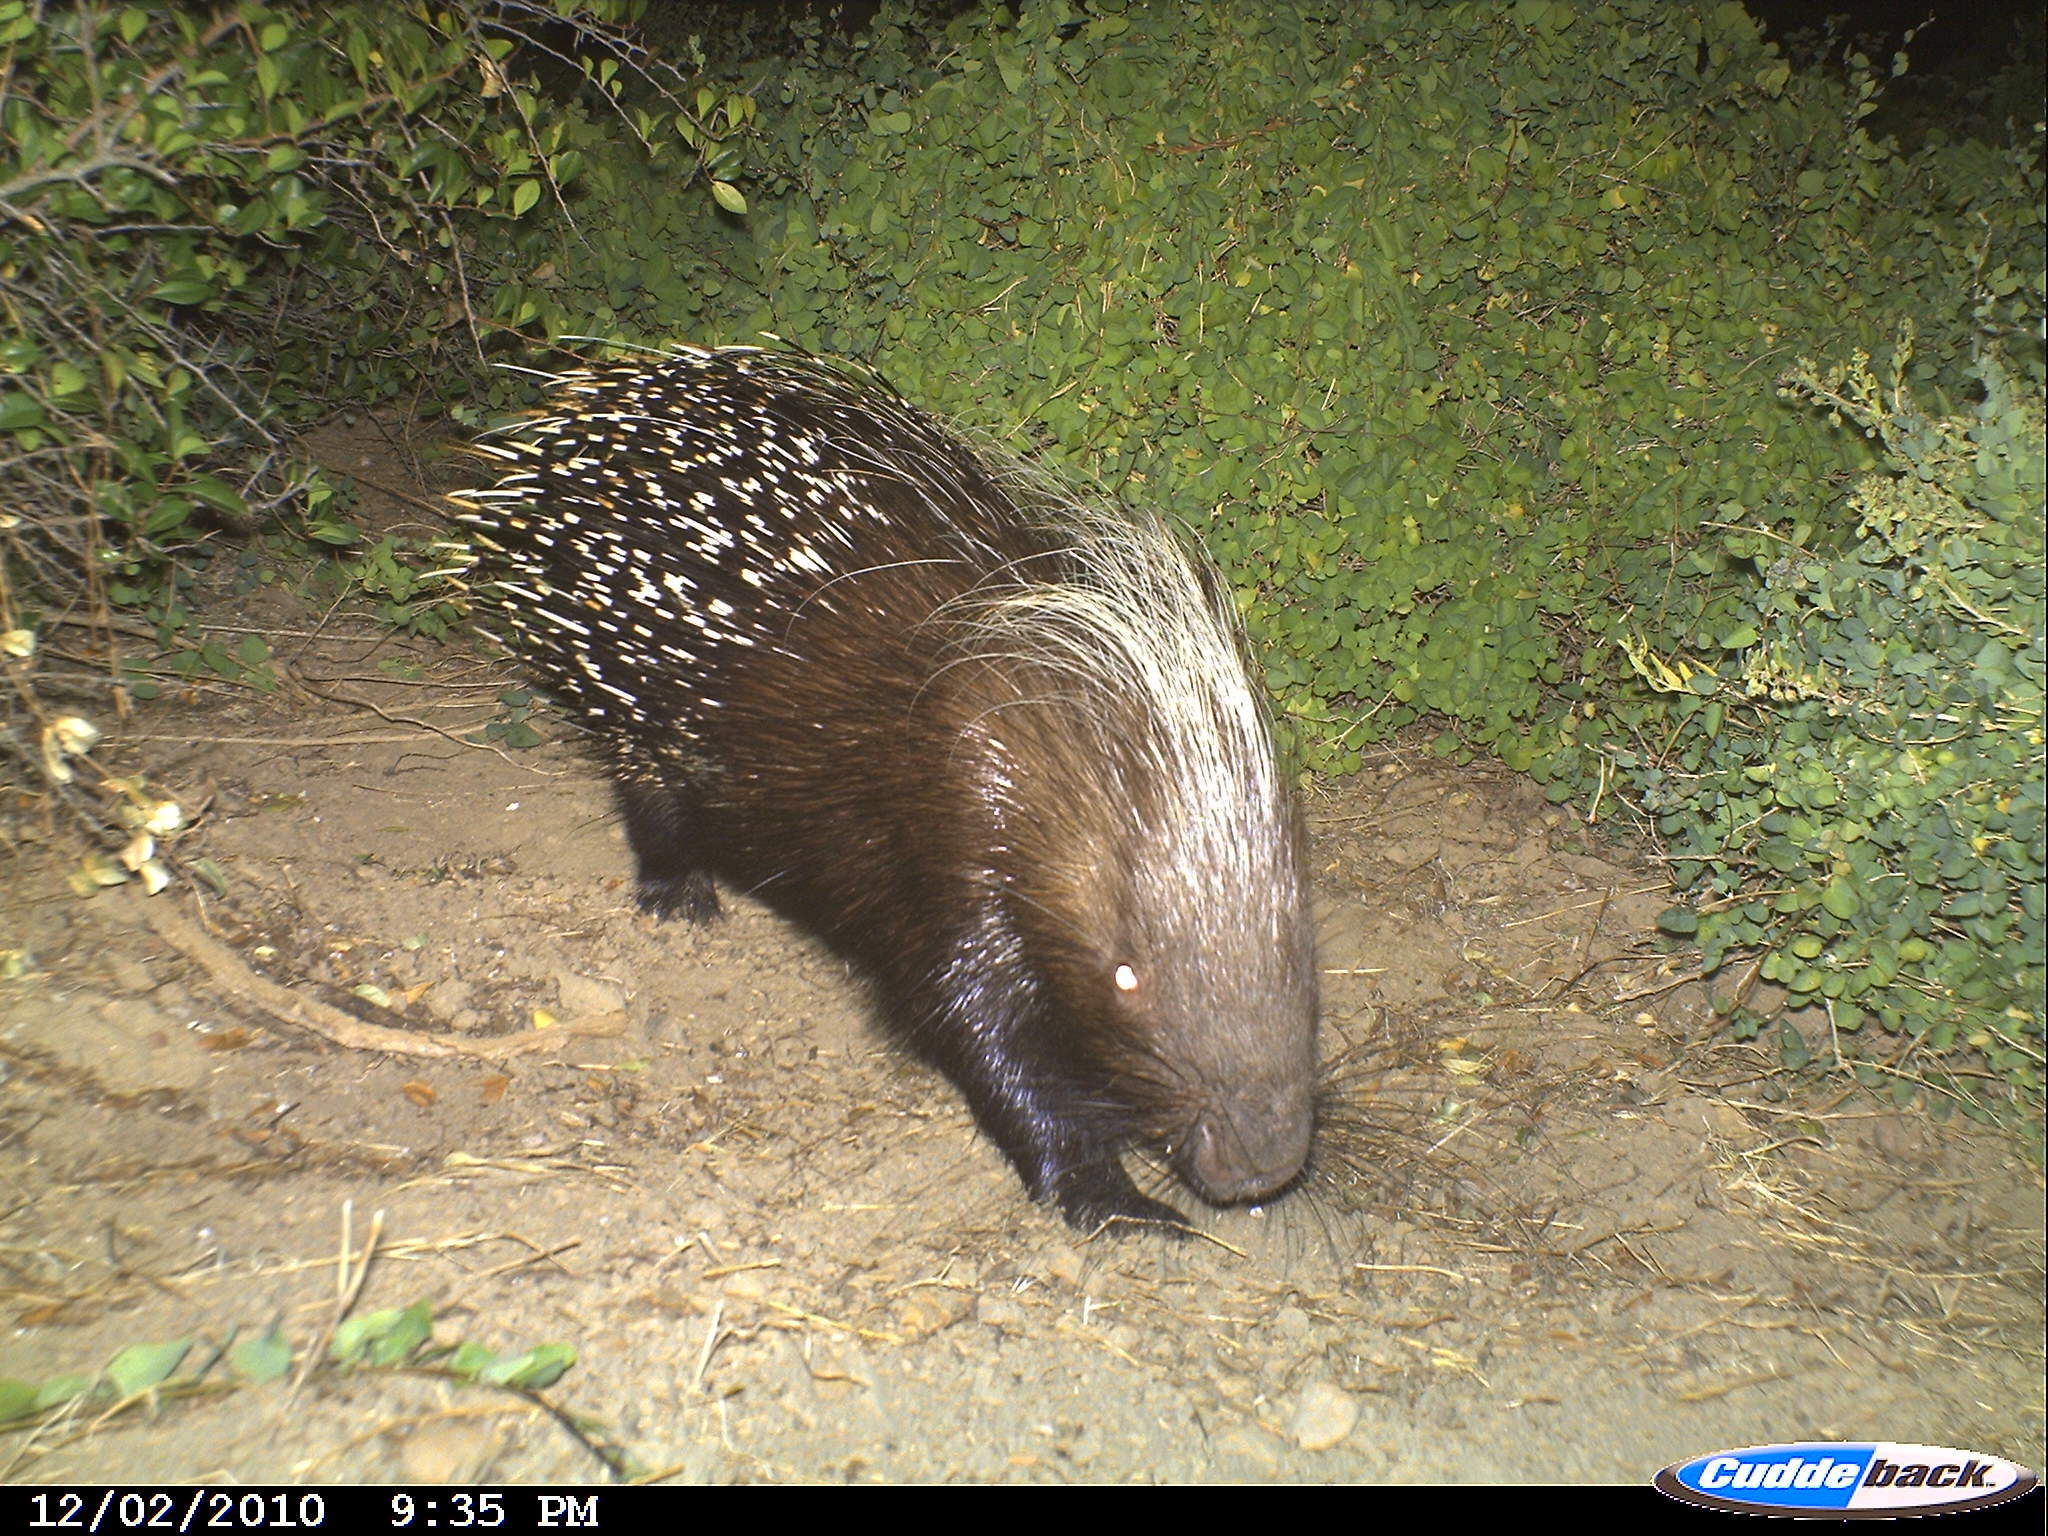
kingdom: Animalia
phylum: Chordata
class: Mammalia
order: Rodentia
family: Hystricidae
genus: Hystrix
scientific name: Hystrix africaeaustralis
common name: Cape porcupine
